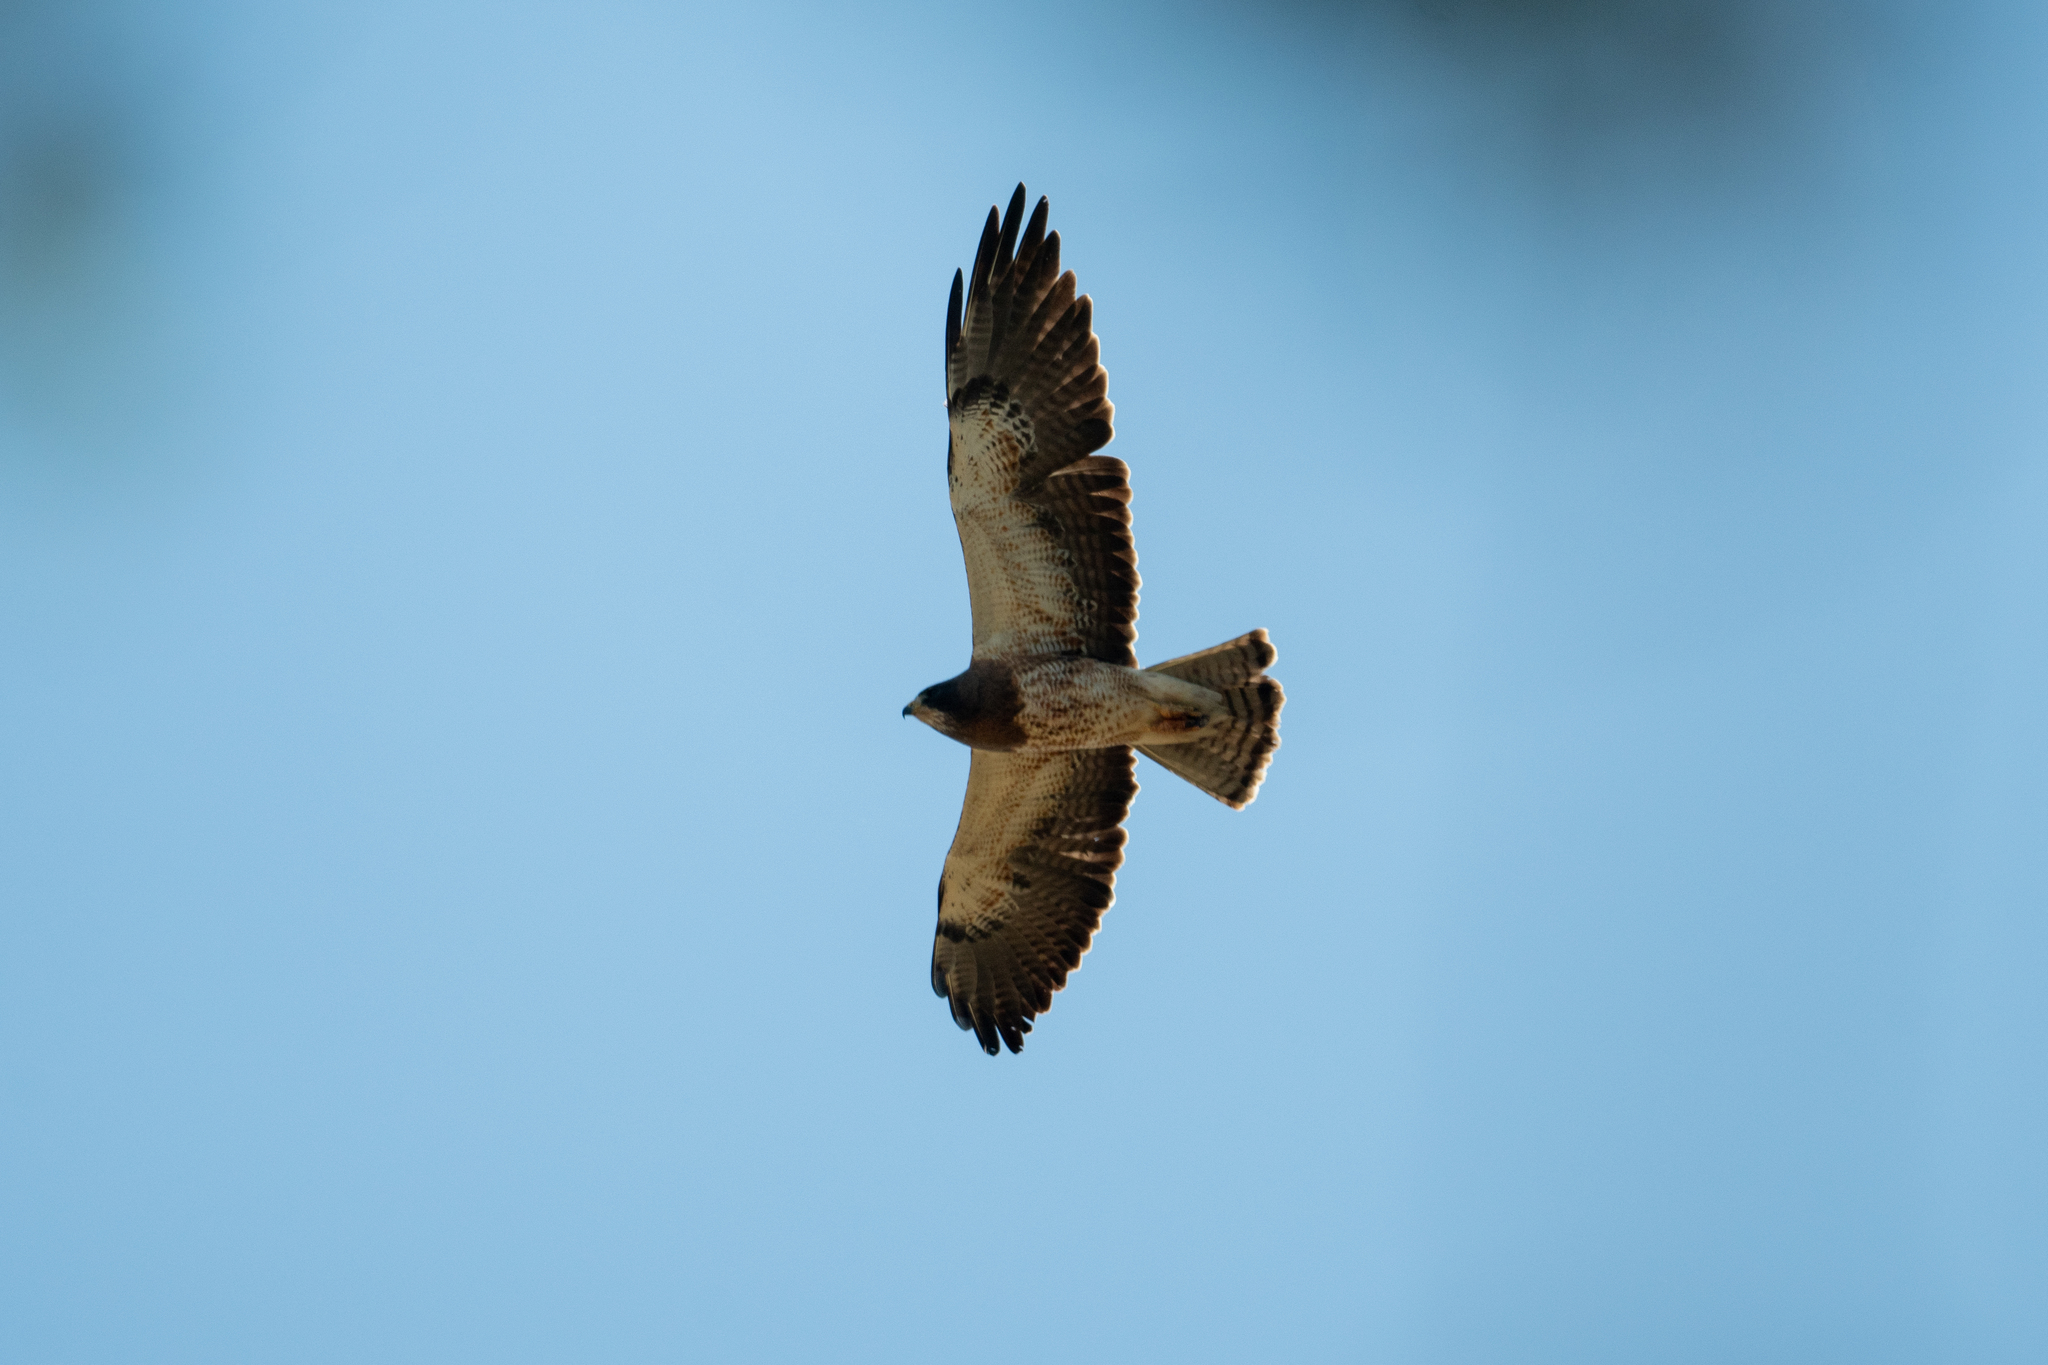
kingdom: Animalia
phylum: Chordata
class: Aves
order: Accipitriformes
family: Accipitridae
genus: Buteo
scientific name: Buteo swainsoni
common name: Swainson's hawk
